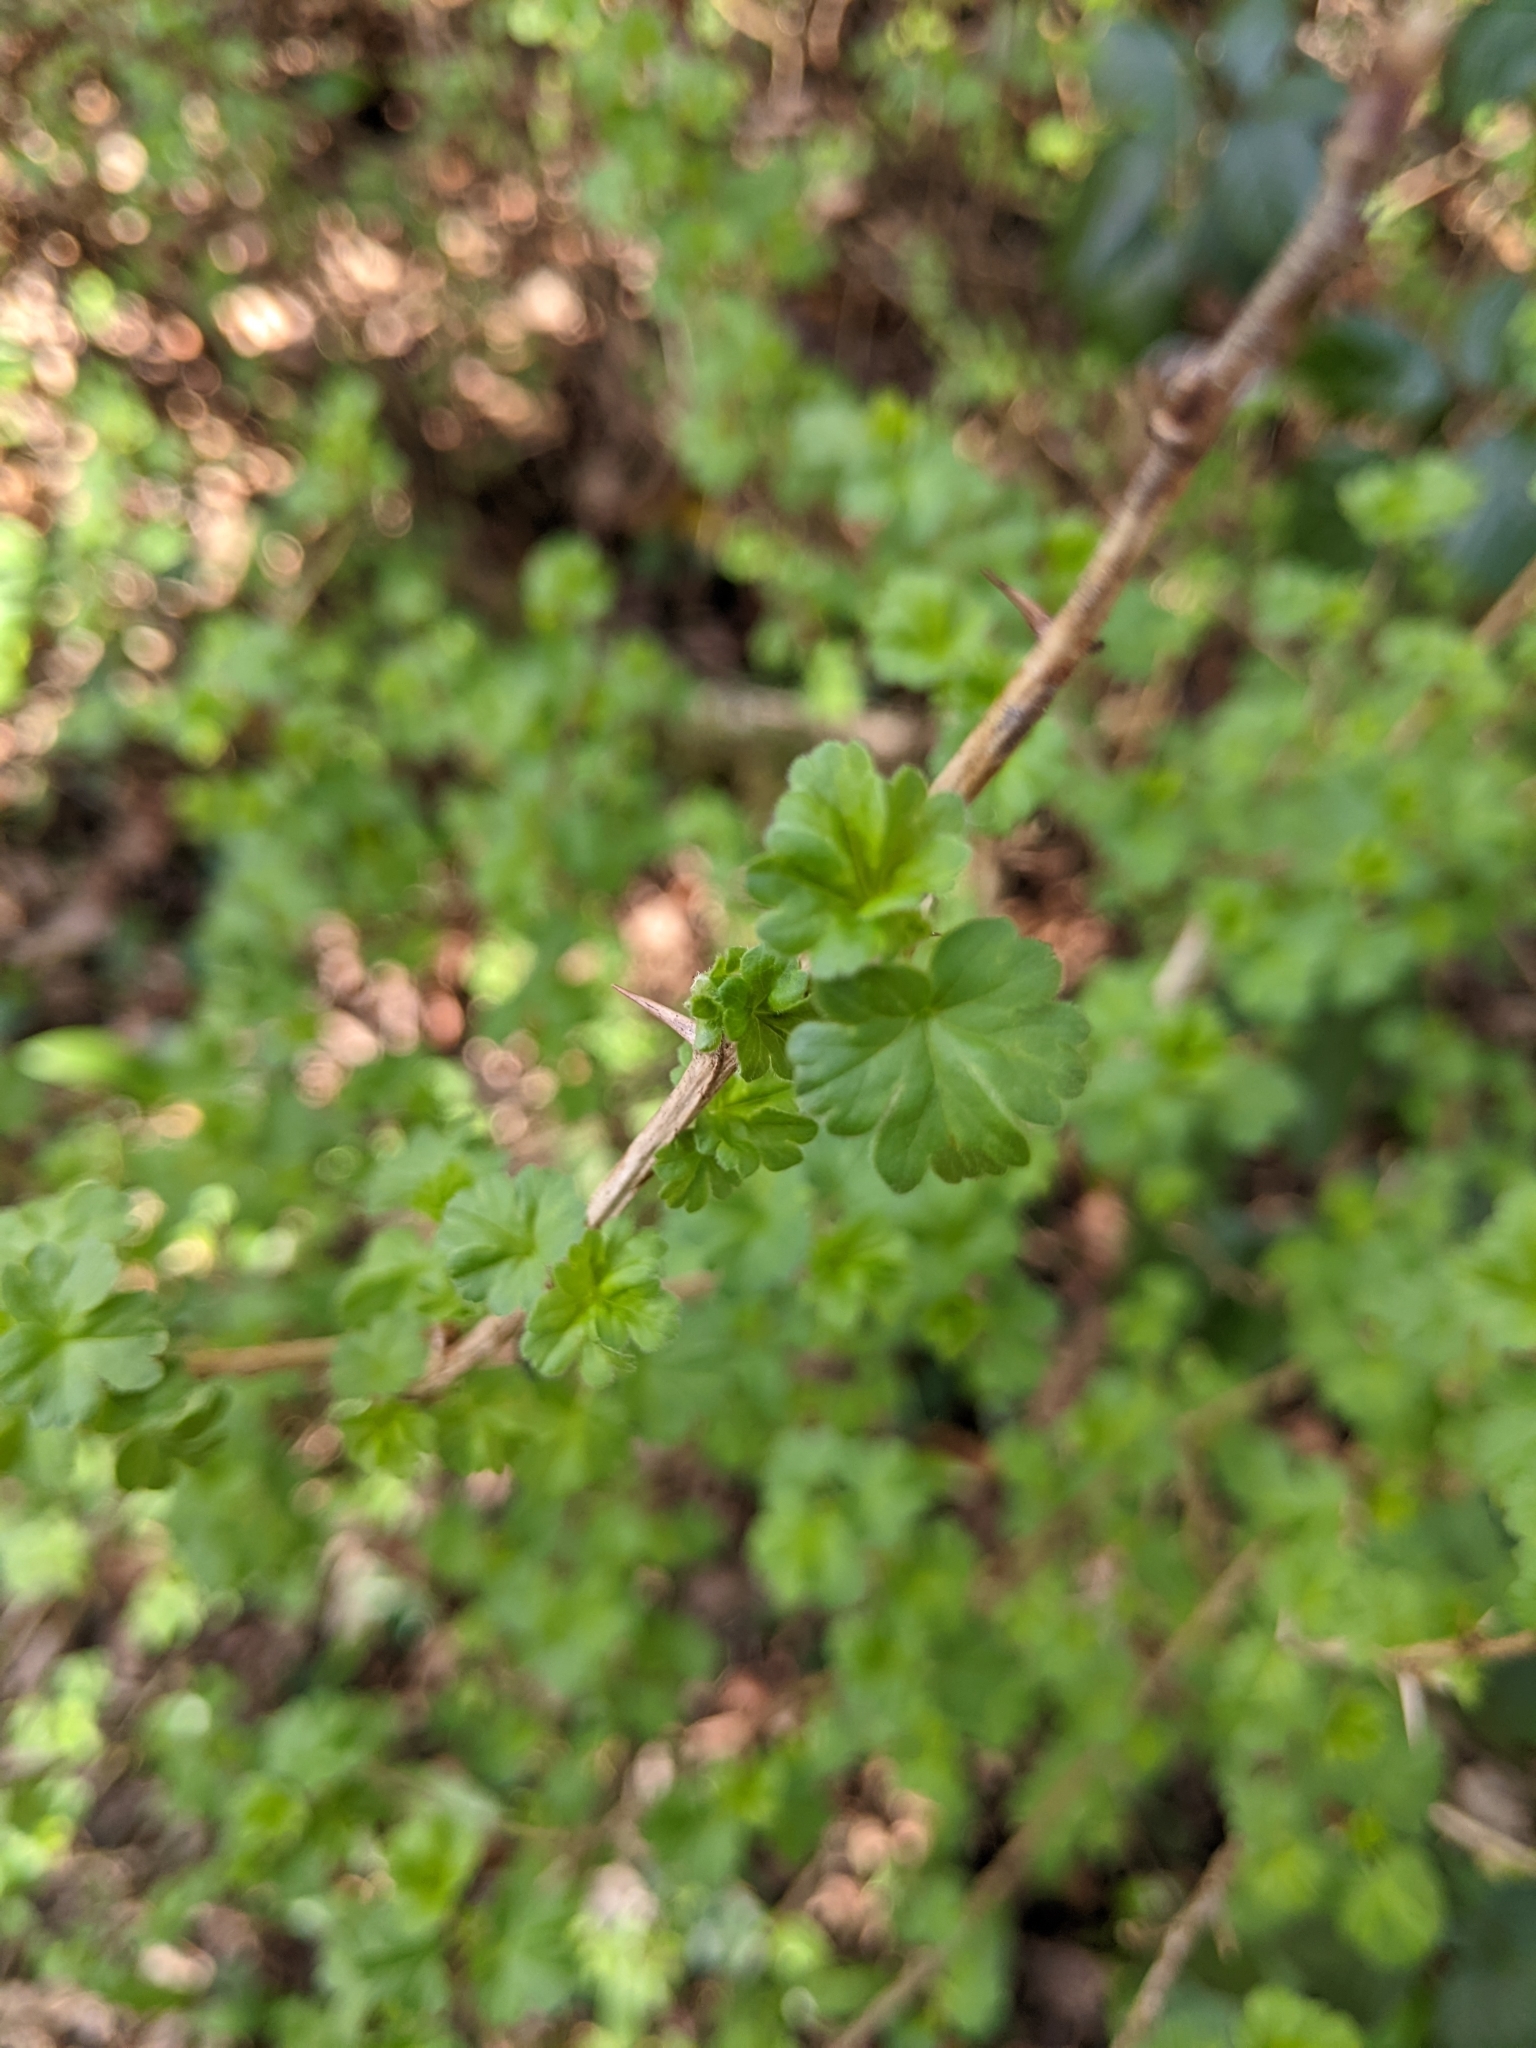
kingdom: Plantae
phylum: Tracheophyta
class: Magnoliopsida
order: Saxifragales
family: Grossulariaceae
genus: Ribes
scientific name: Ribes uva-crispa
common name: Gooseberry
